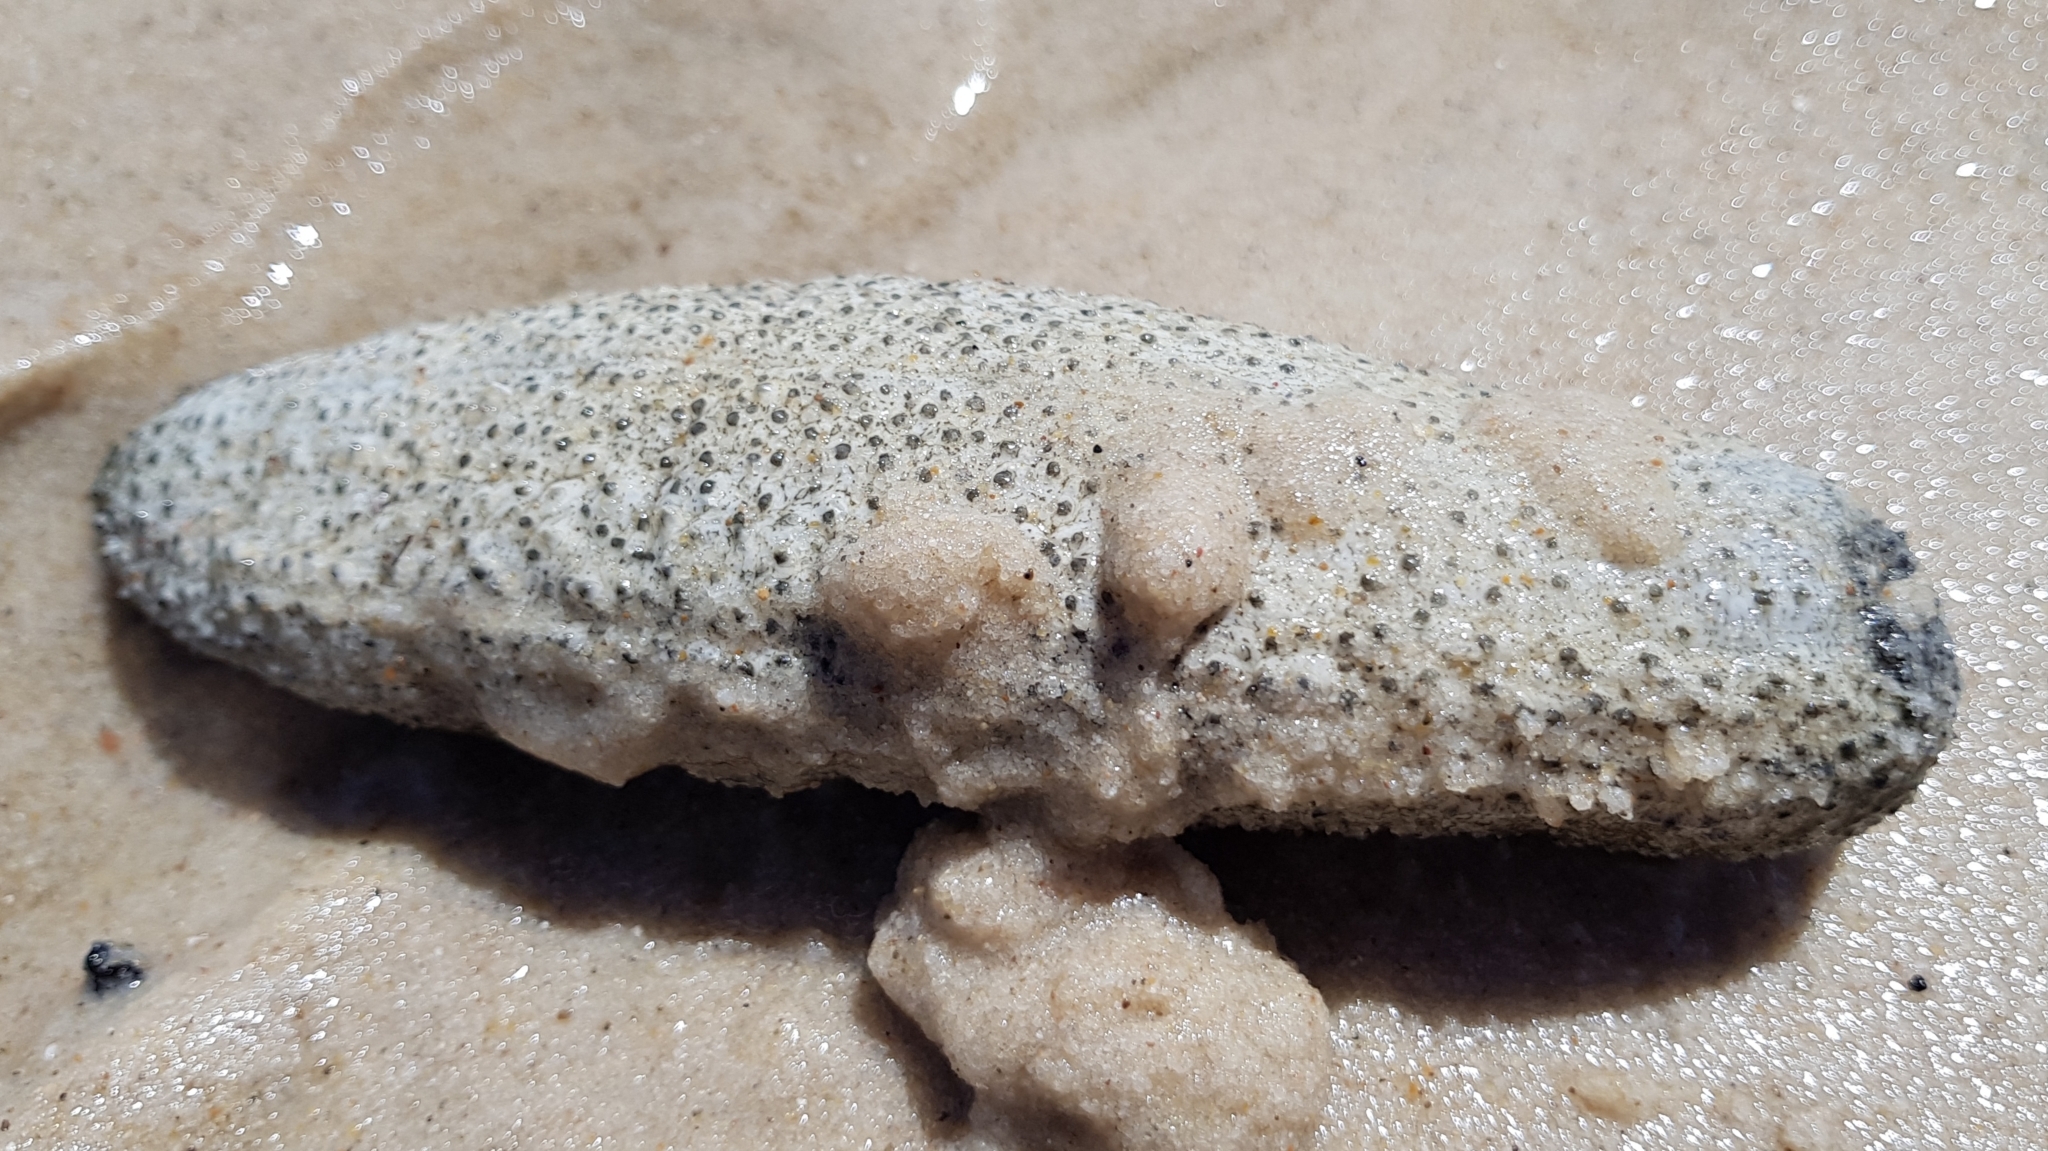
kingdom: Animalia
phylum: Echinodermata
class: Holothuroidea
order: Holothuriida
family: Holothuriidae
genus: Holothuria
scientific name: Holothuria scabra
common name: Golden sandfish
